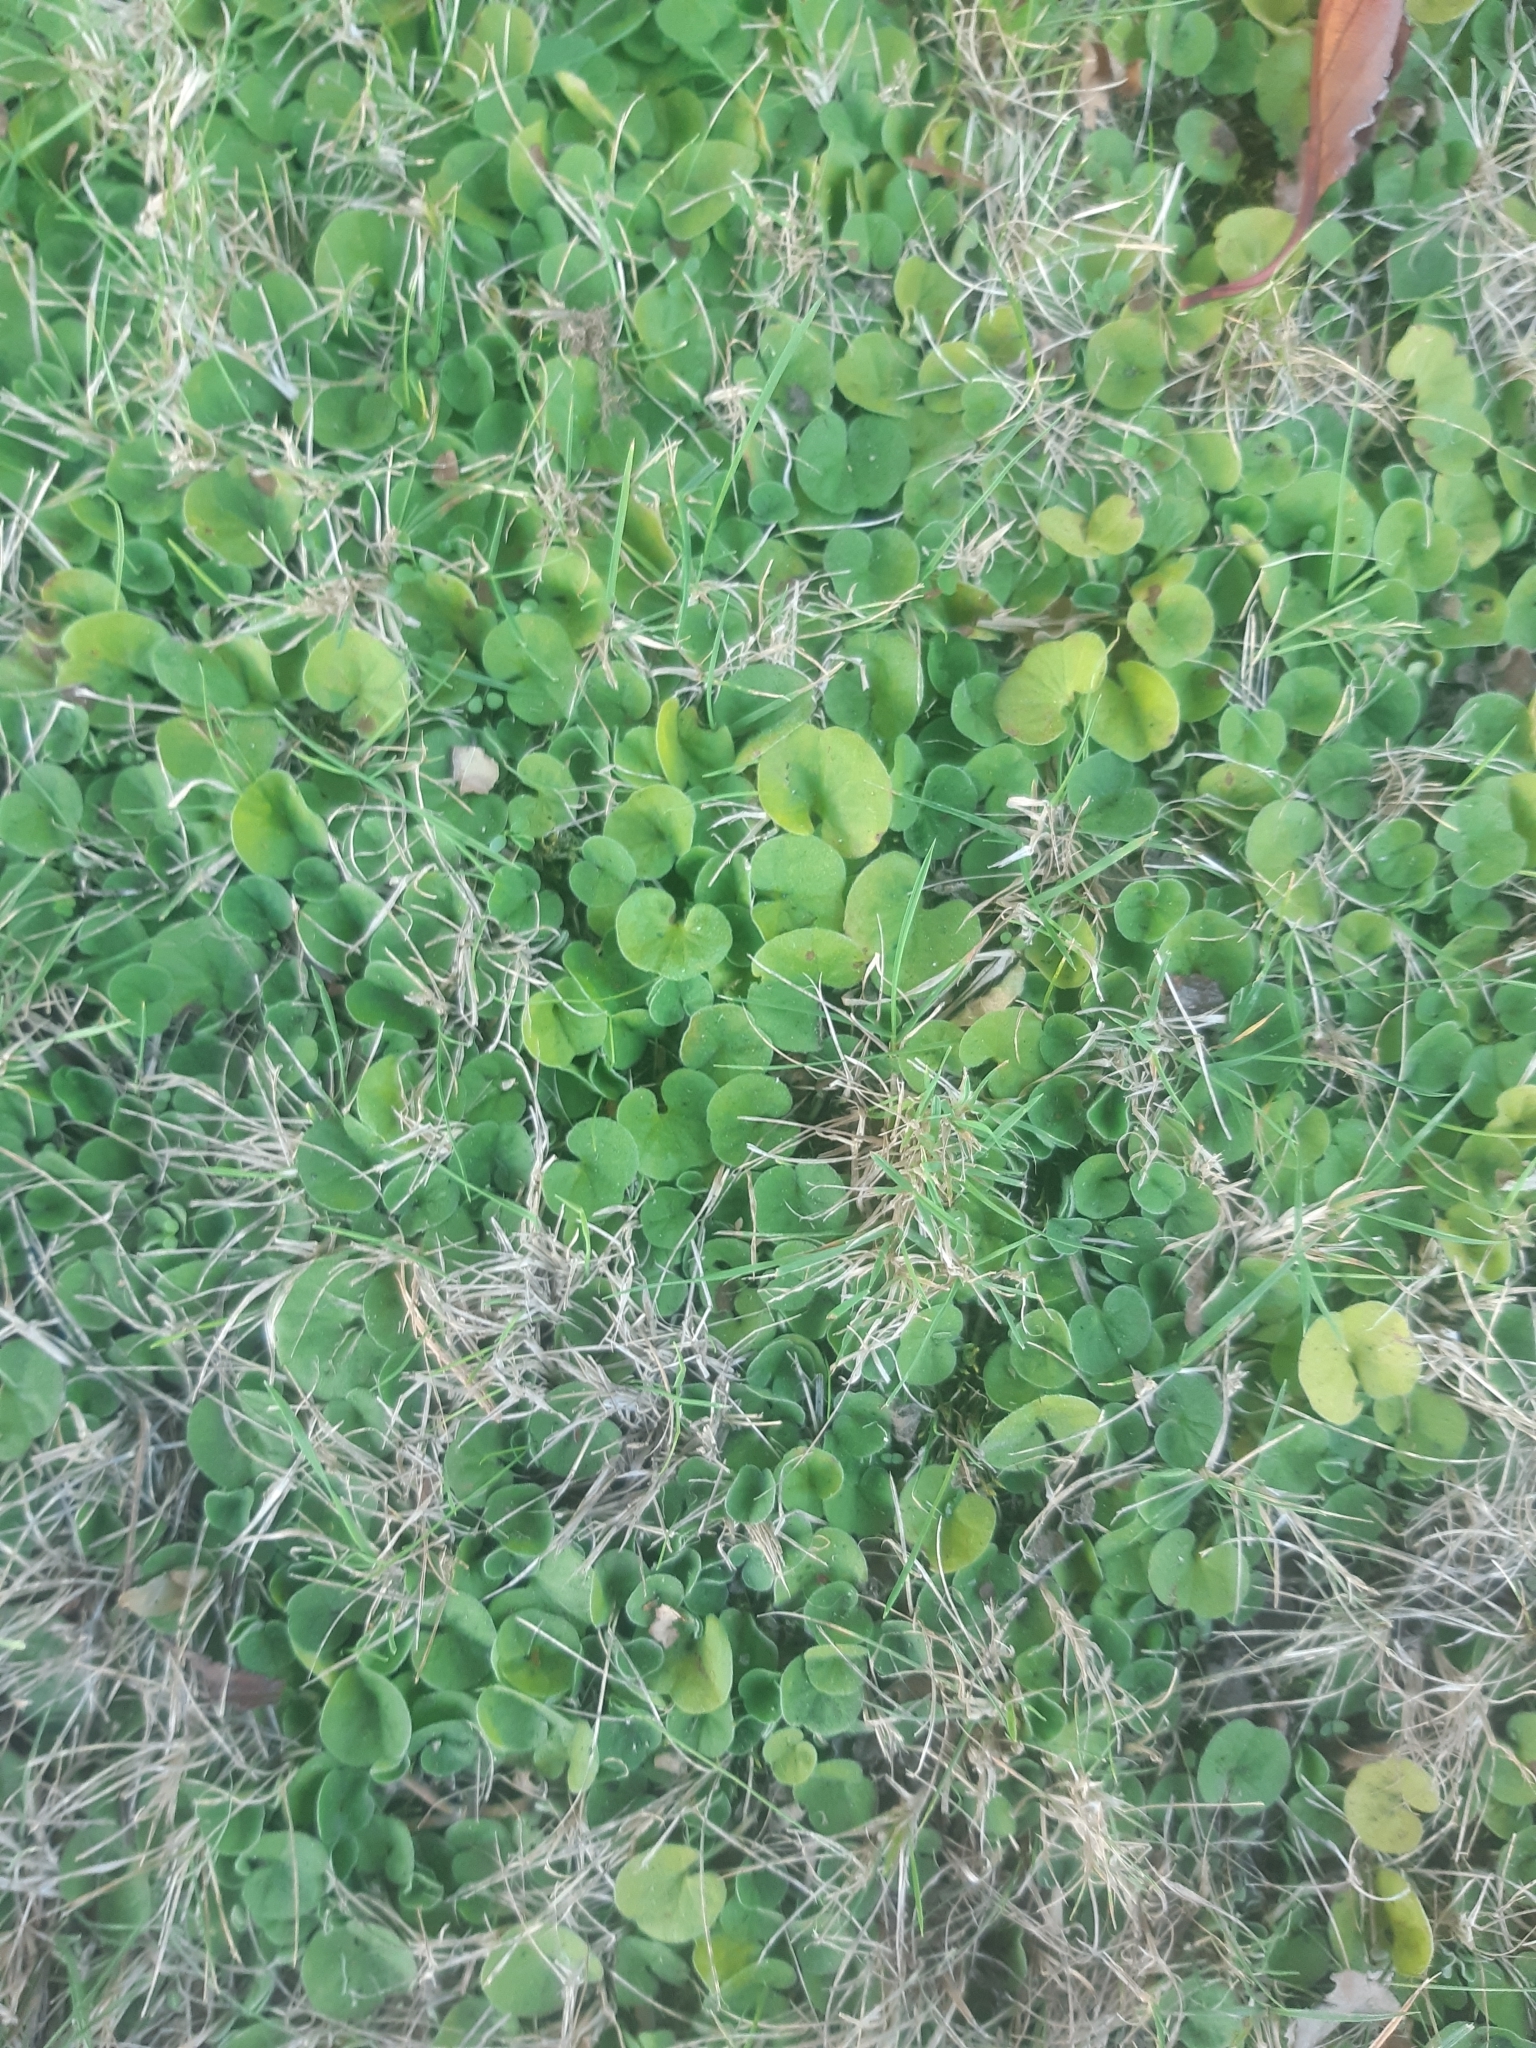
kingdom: Plantae
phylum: Tracheophyta
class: Magnoliopsida
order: Solanales
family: Convolvulaceae
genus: Dichondra
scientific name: Dichondra repens
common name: Kidneyweed
